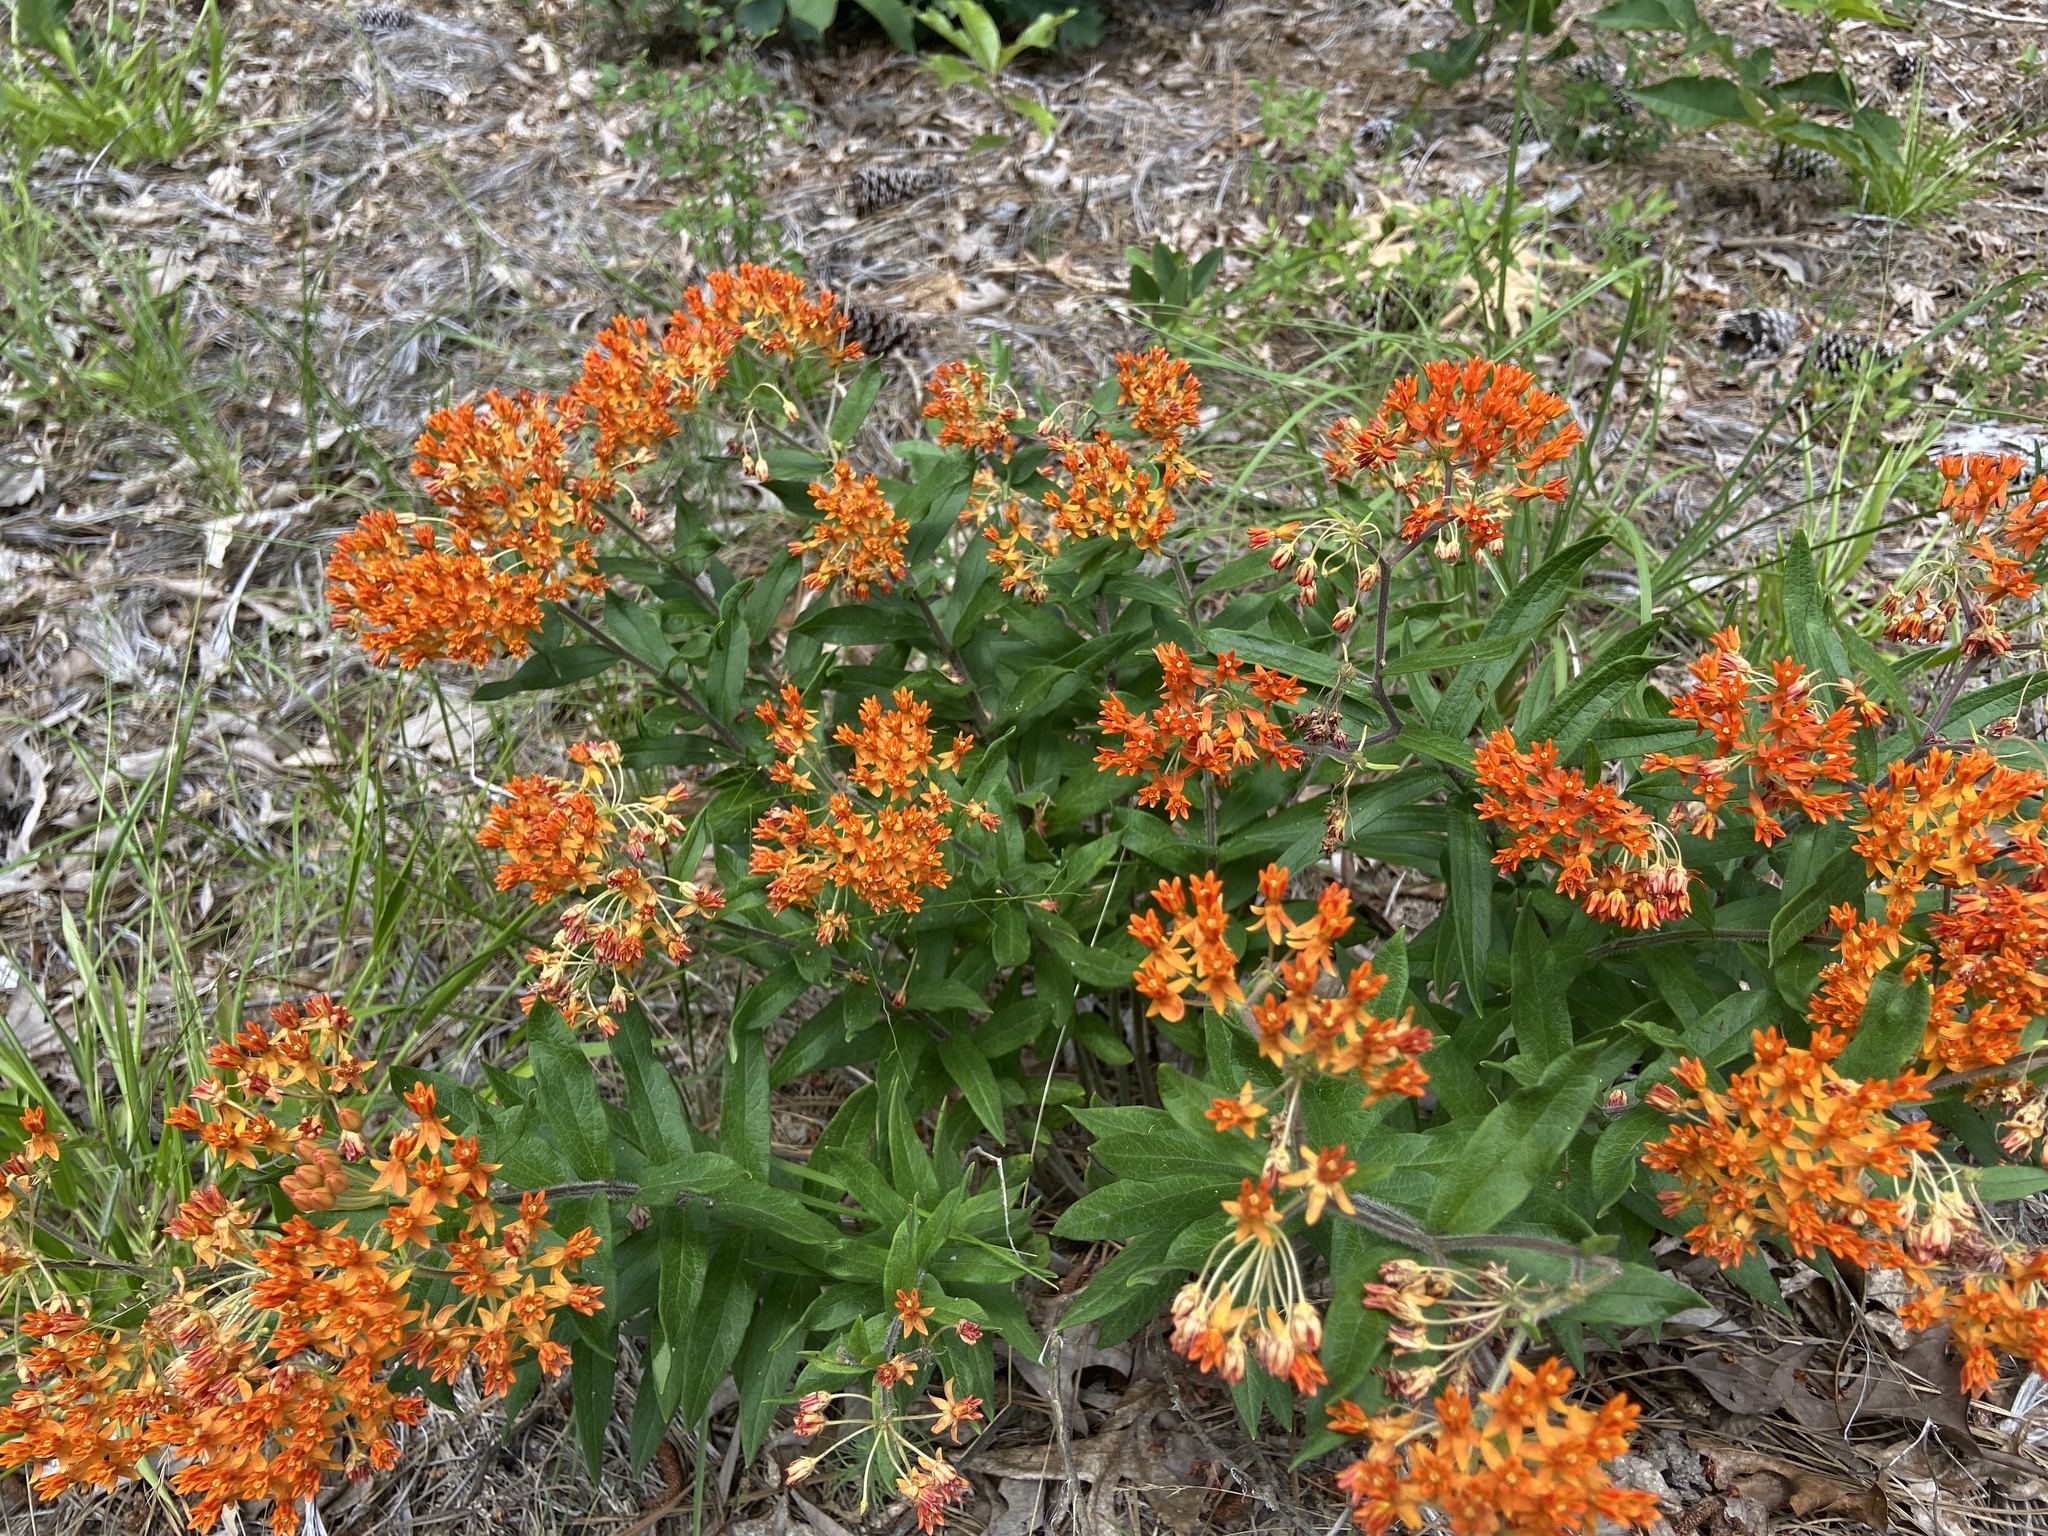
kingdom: Plantae
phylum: Tracheophyta
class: Magnoliopsida
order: Gentianales
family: Apocynaceae
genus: Asclepias
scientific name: Asclepias tuberosa
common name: Butterfly milkweed
